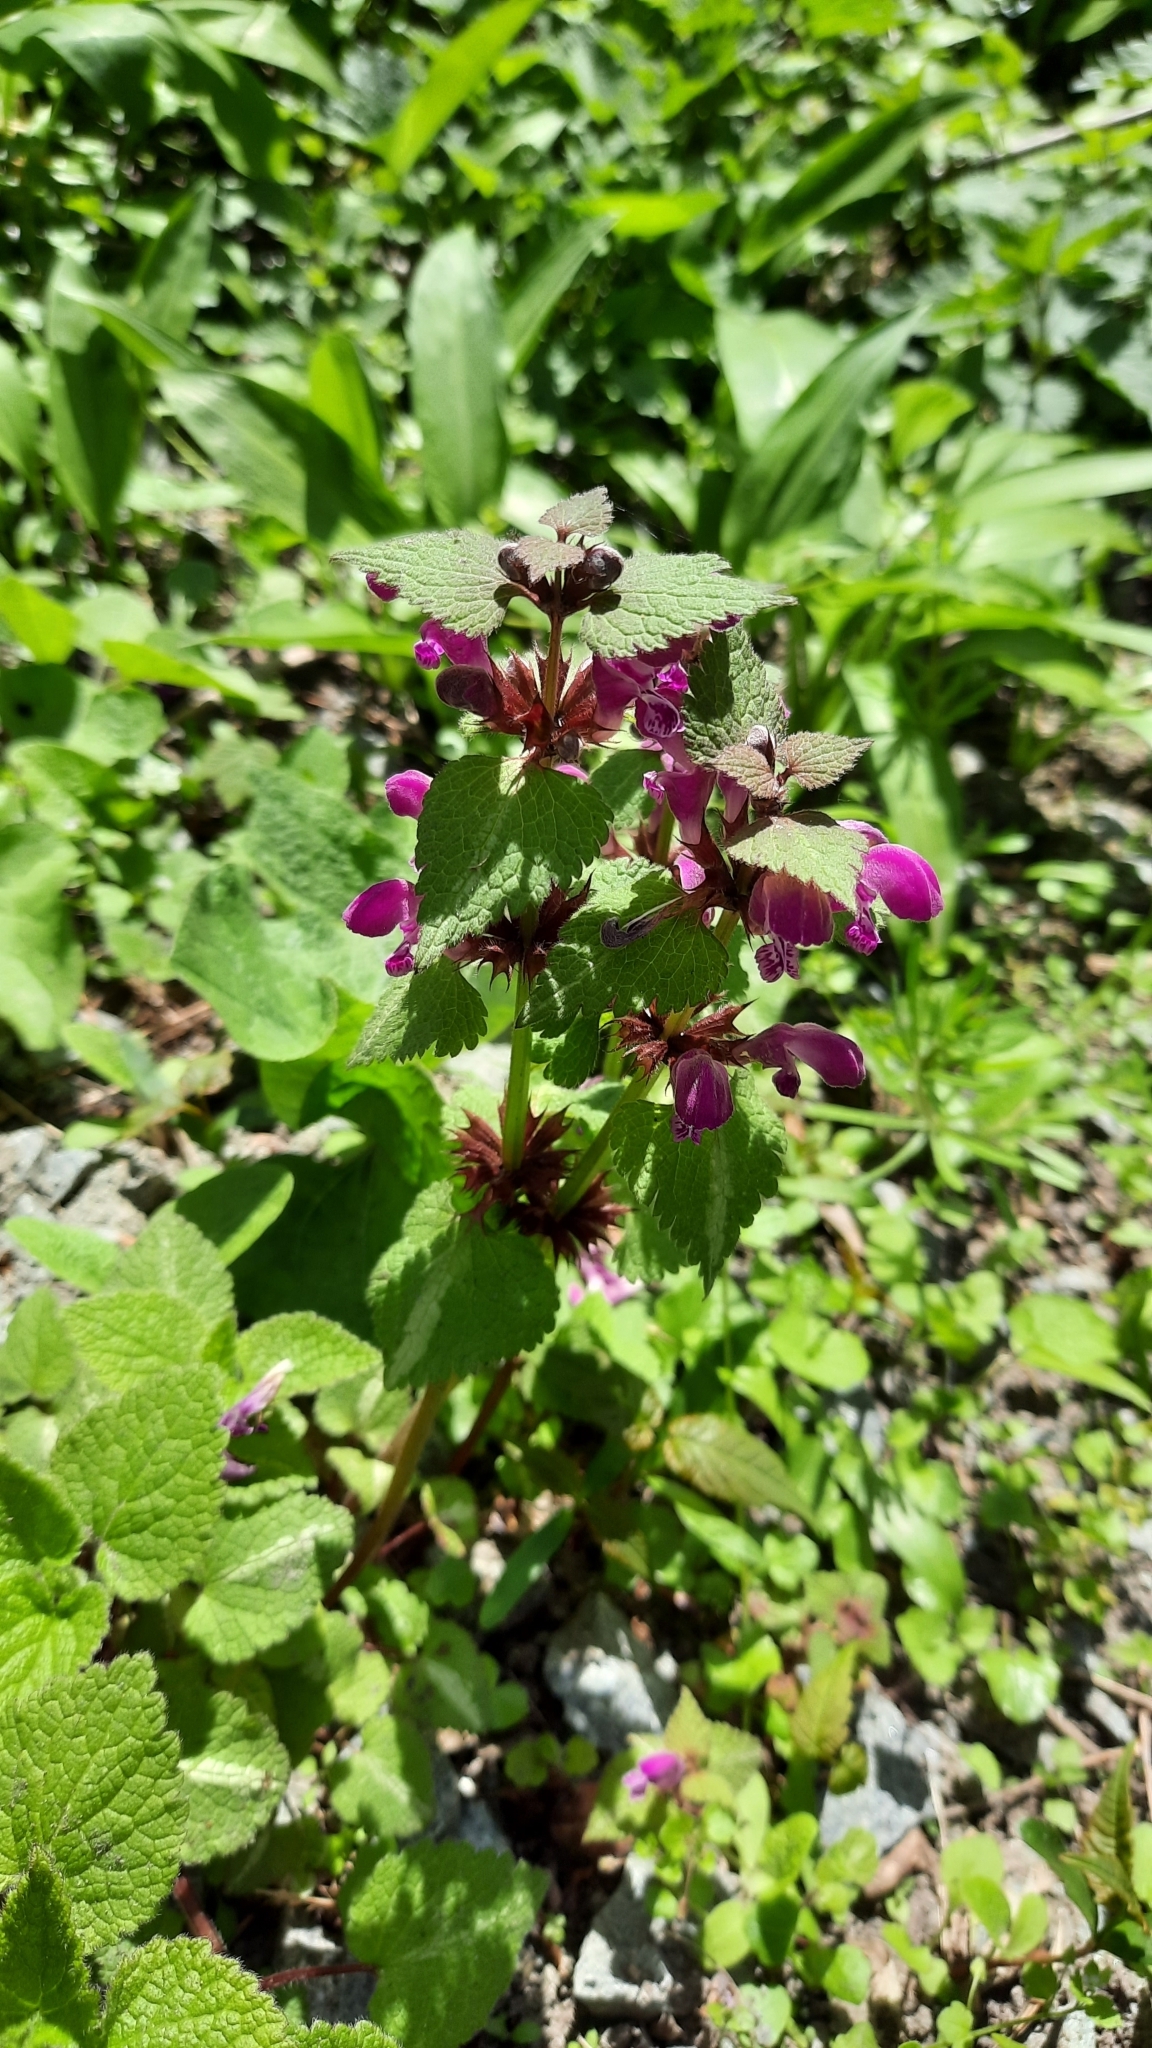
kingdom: Plantae
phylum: Tracheophyta
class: Magnoliopsida
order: Lamiales
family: Lamiaceae
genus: Lamium
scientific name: Lamium maculatum
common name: Spotted dead-nettle
